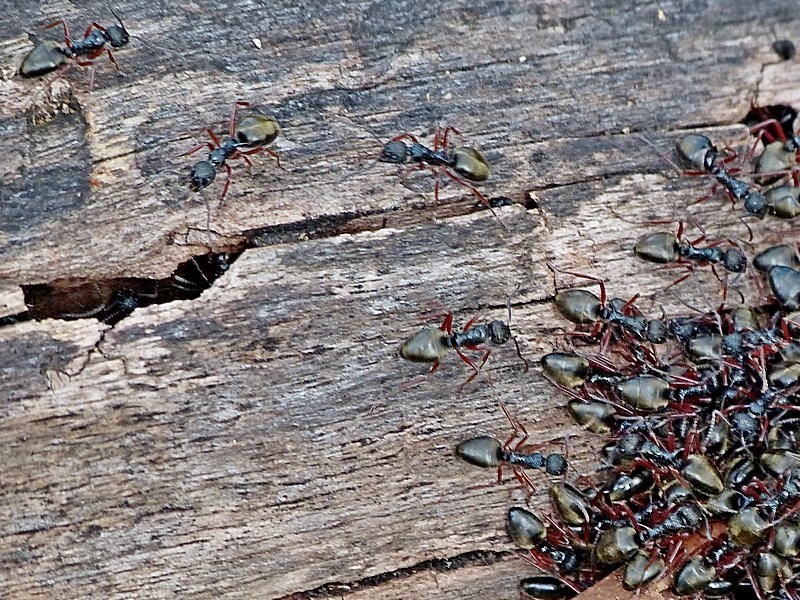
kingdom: Animalia
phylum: Arthropoda
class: Insecta
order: Hymenoptera
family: Formicidae
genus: Dolichoderus
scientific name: Dolichoderus doriae
